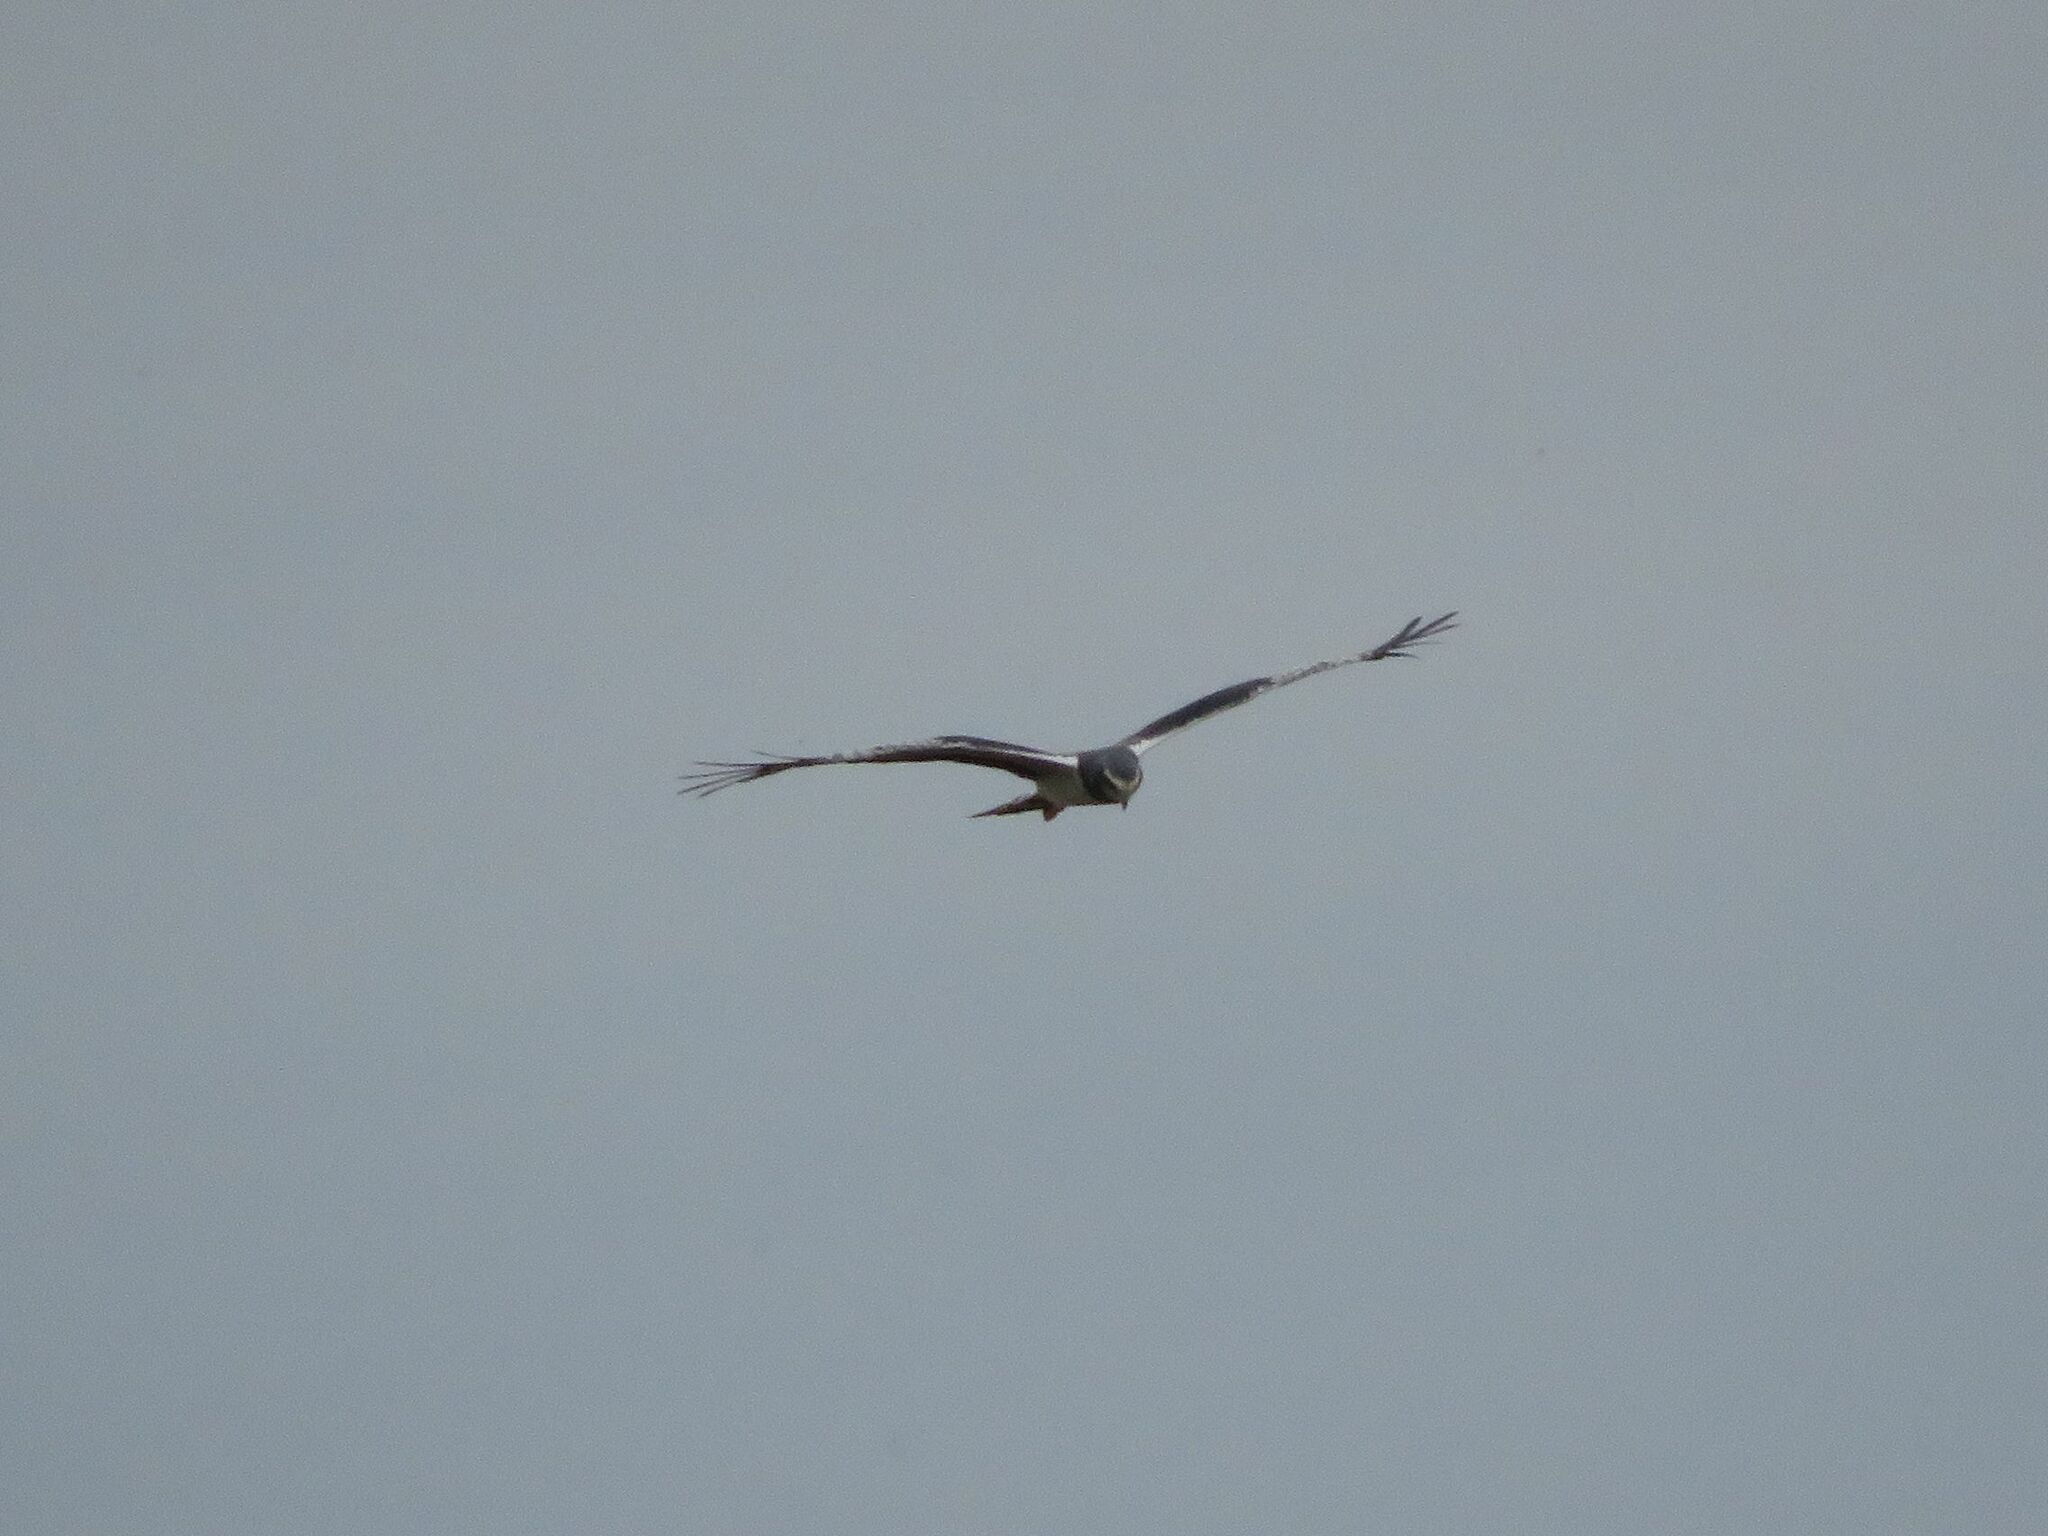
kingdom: Animalia
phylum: Chordata
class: Aves
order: Accipitriformes
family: Accipitridae
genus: Circus
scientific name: Circus buffoni
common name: Long-winged harrier
